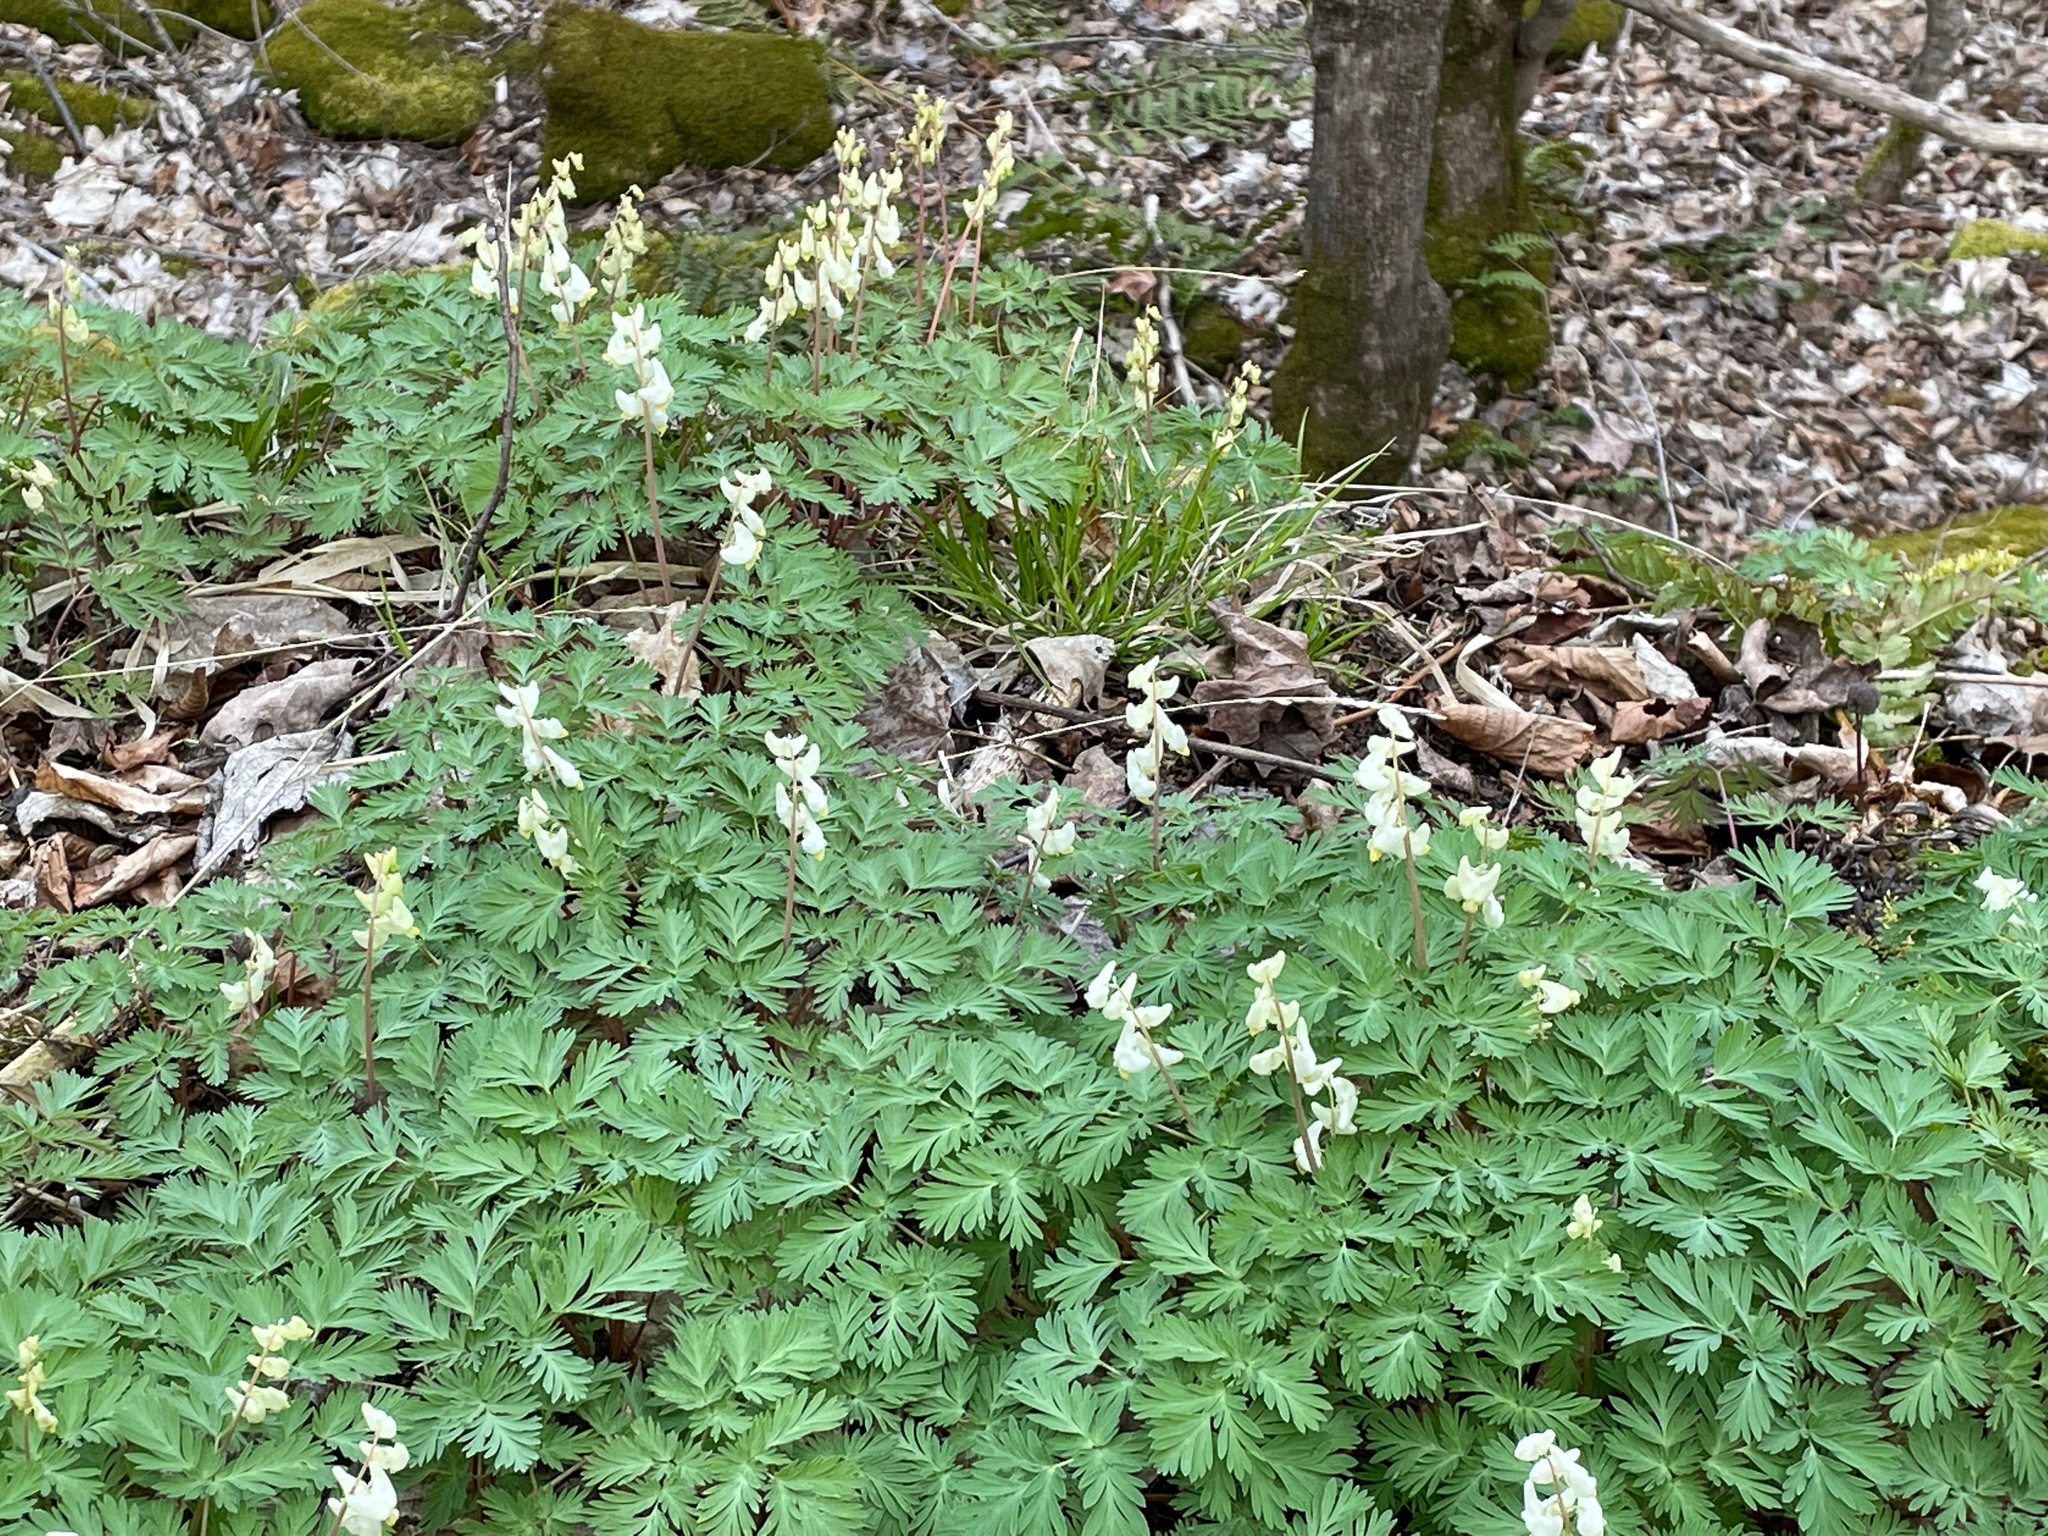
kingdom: Plantae
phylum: Tracheophyta
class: Magnoliopsida
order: Ranunculales
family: Papaveraceae
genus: Dicentra
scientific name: Dicentra cucullaria
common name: Dutchman's breeches
